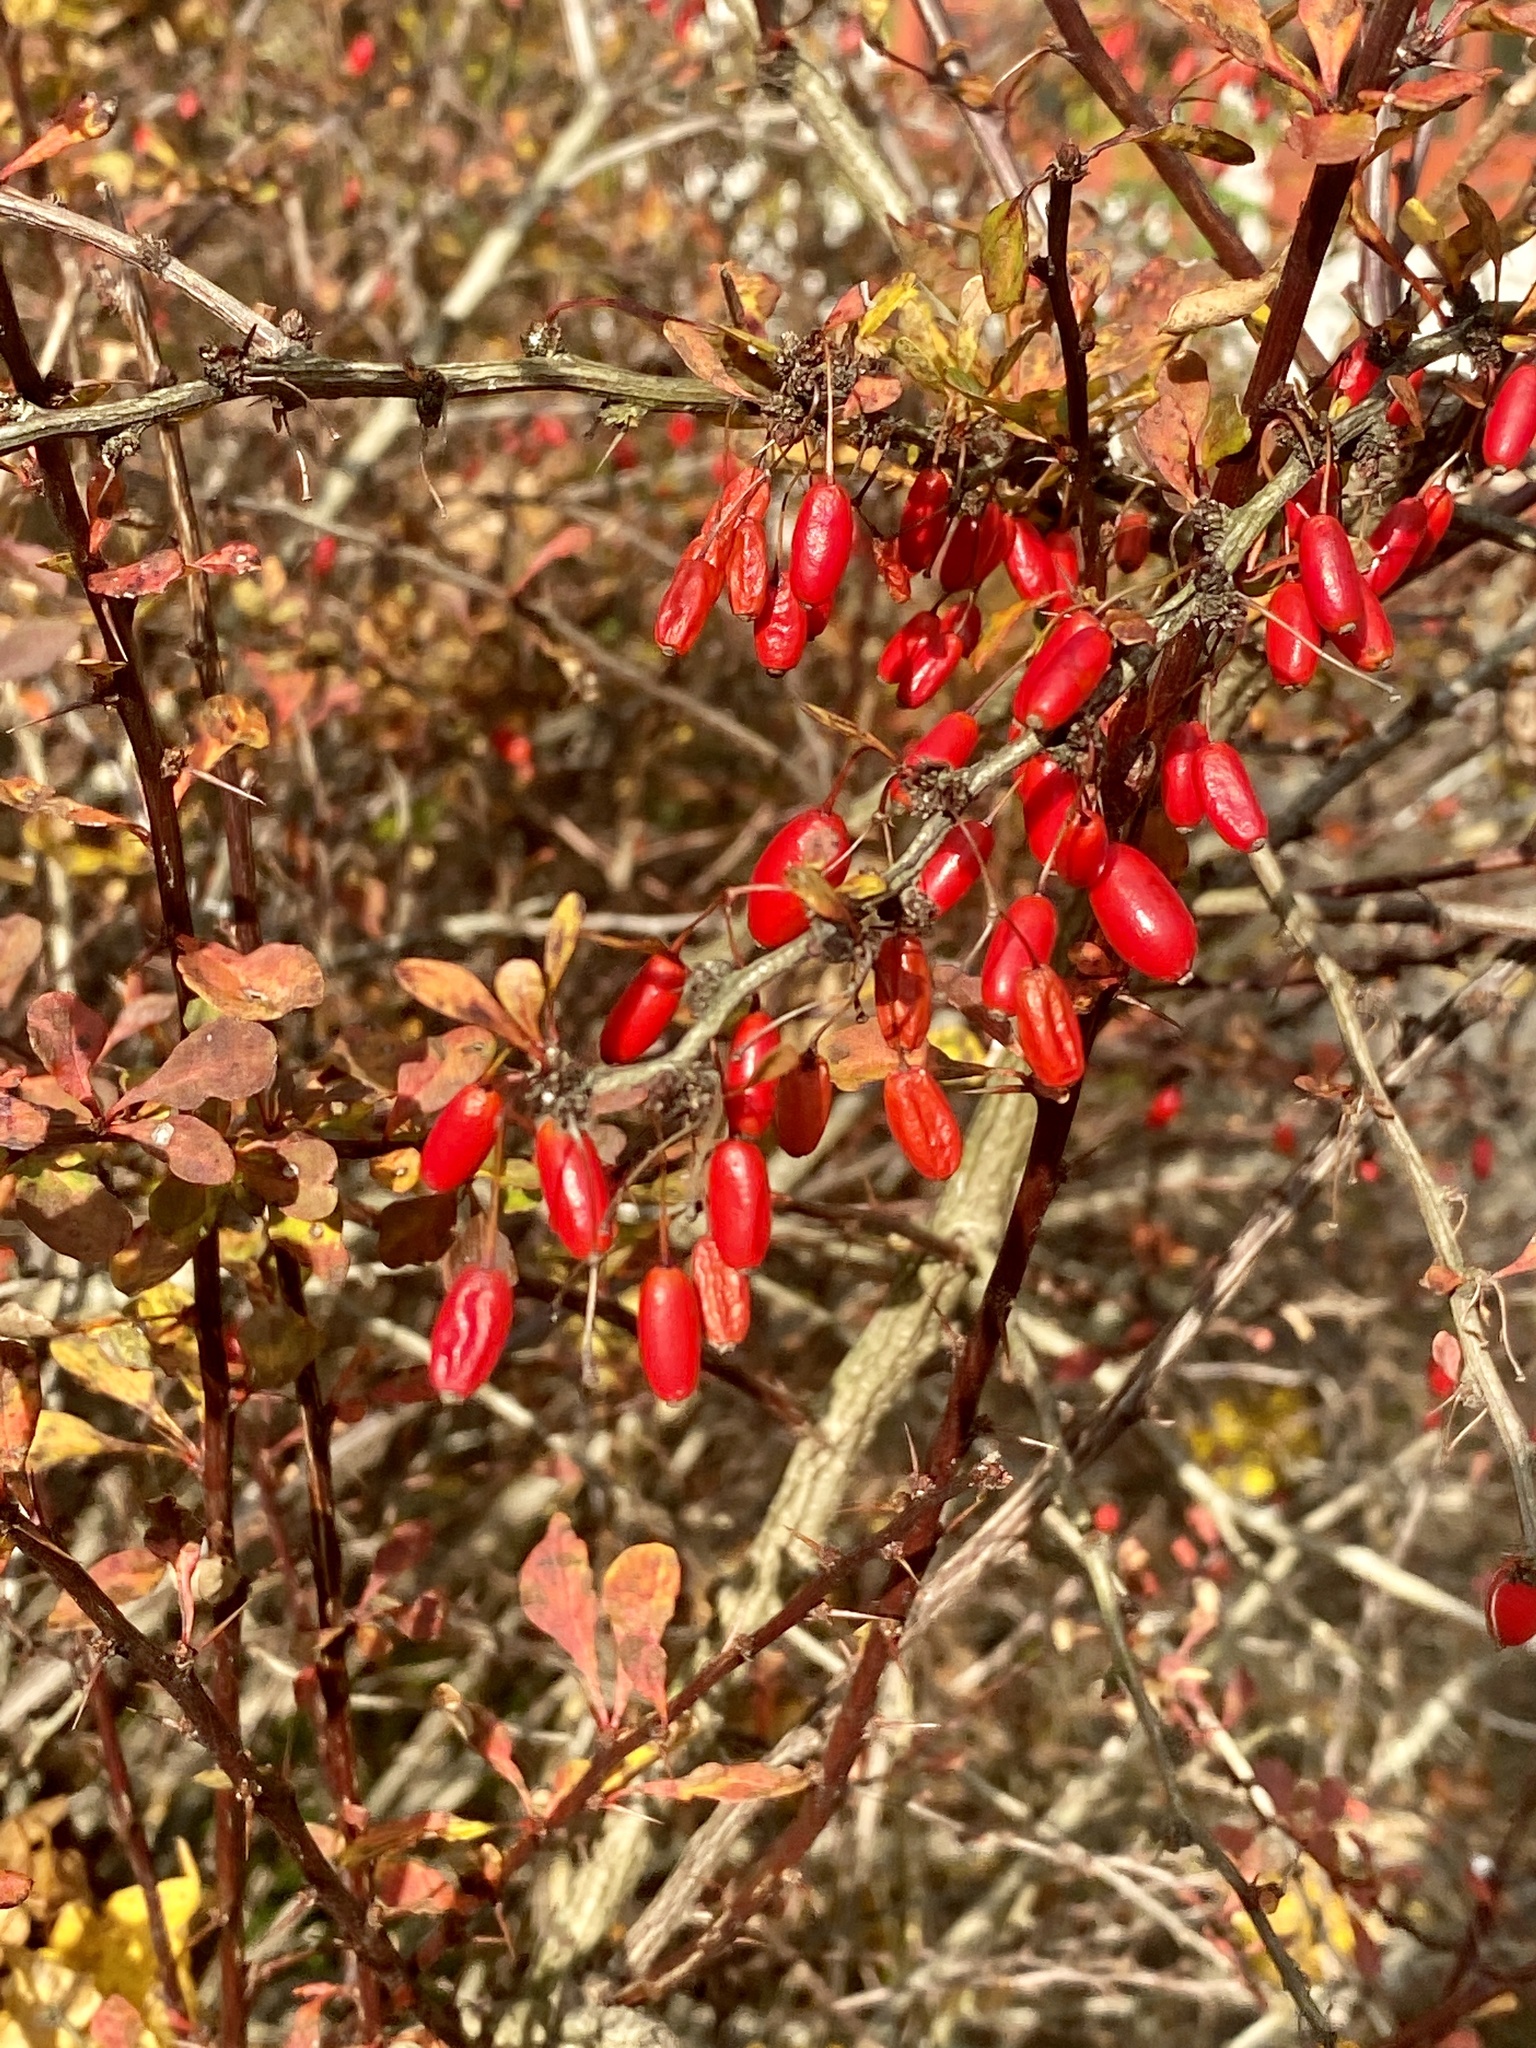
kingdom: Plantae
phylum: Tracheophyta
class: Magnoliopsida
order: Ranunculales
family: Berberidaceae
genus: Berberis
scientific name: Berberis thunbergii
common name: Japanese barberry
